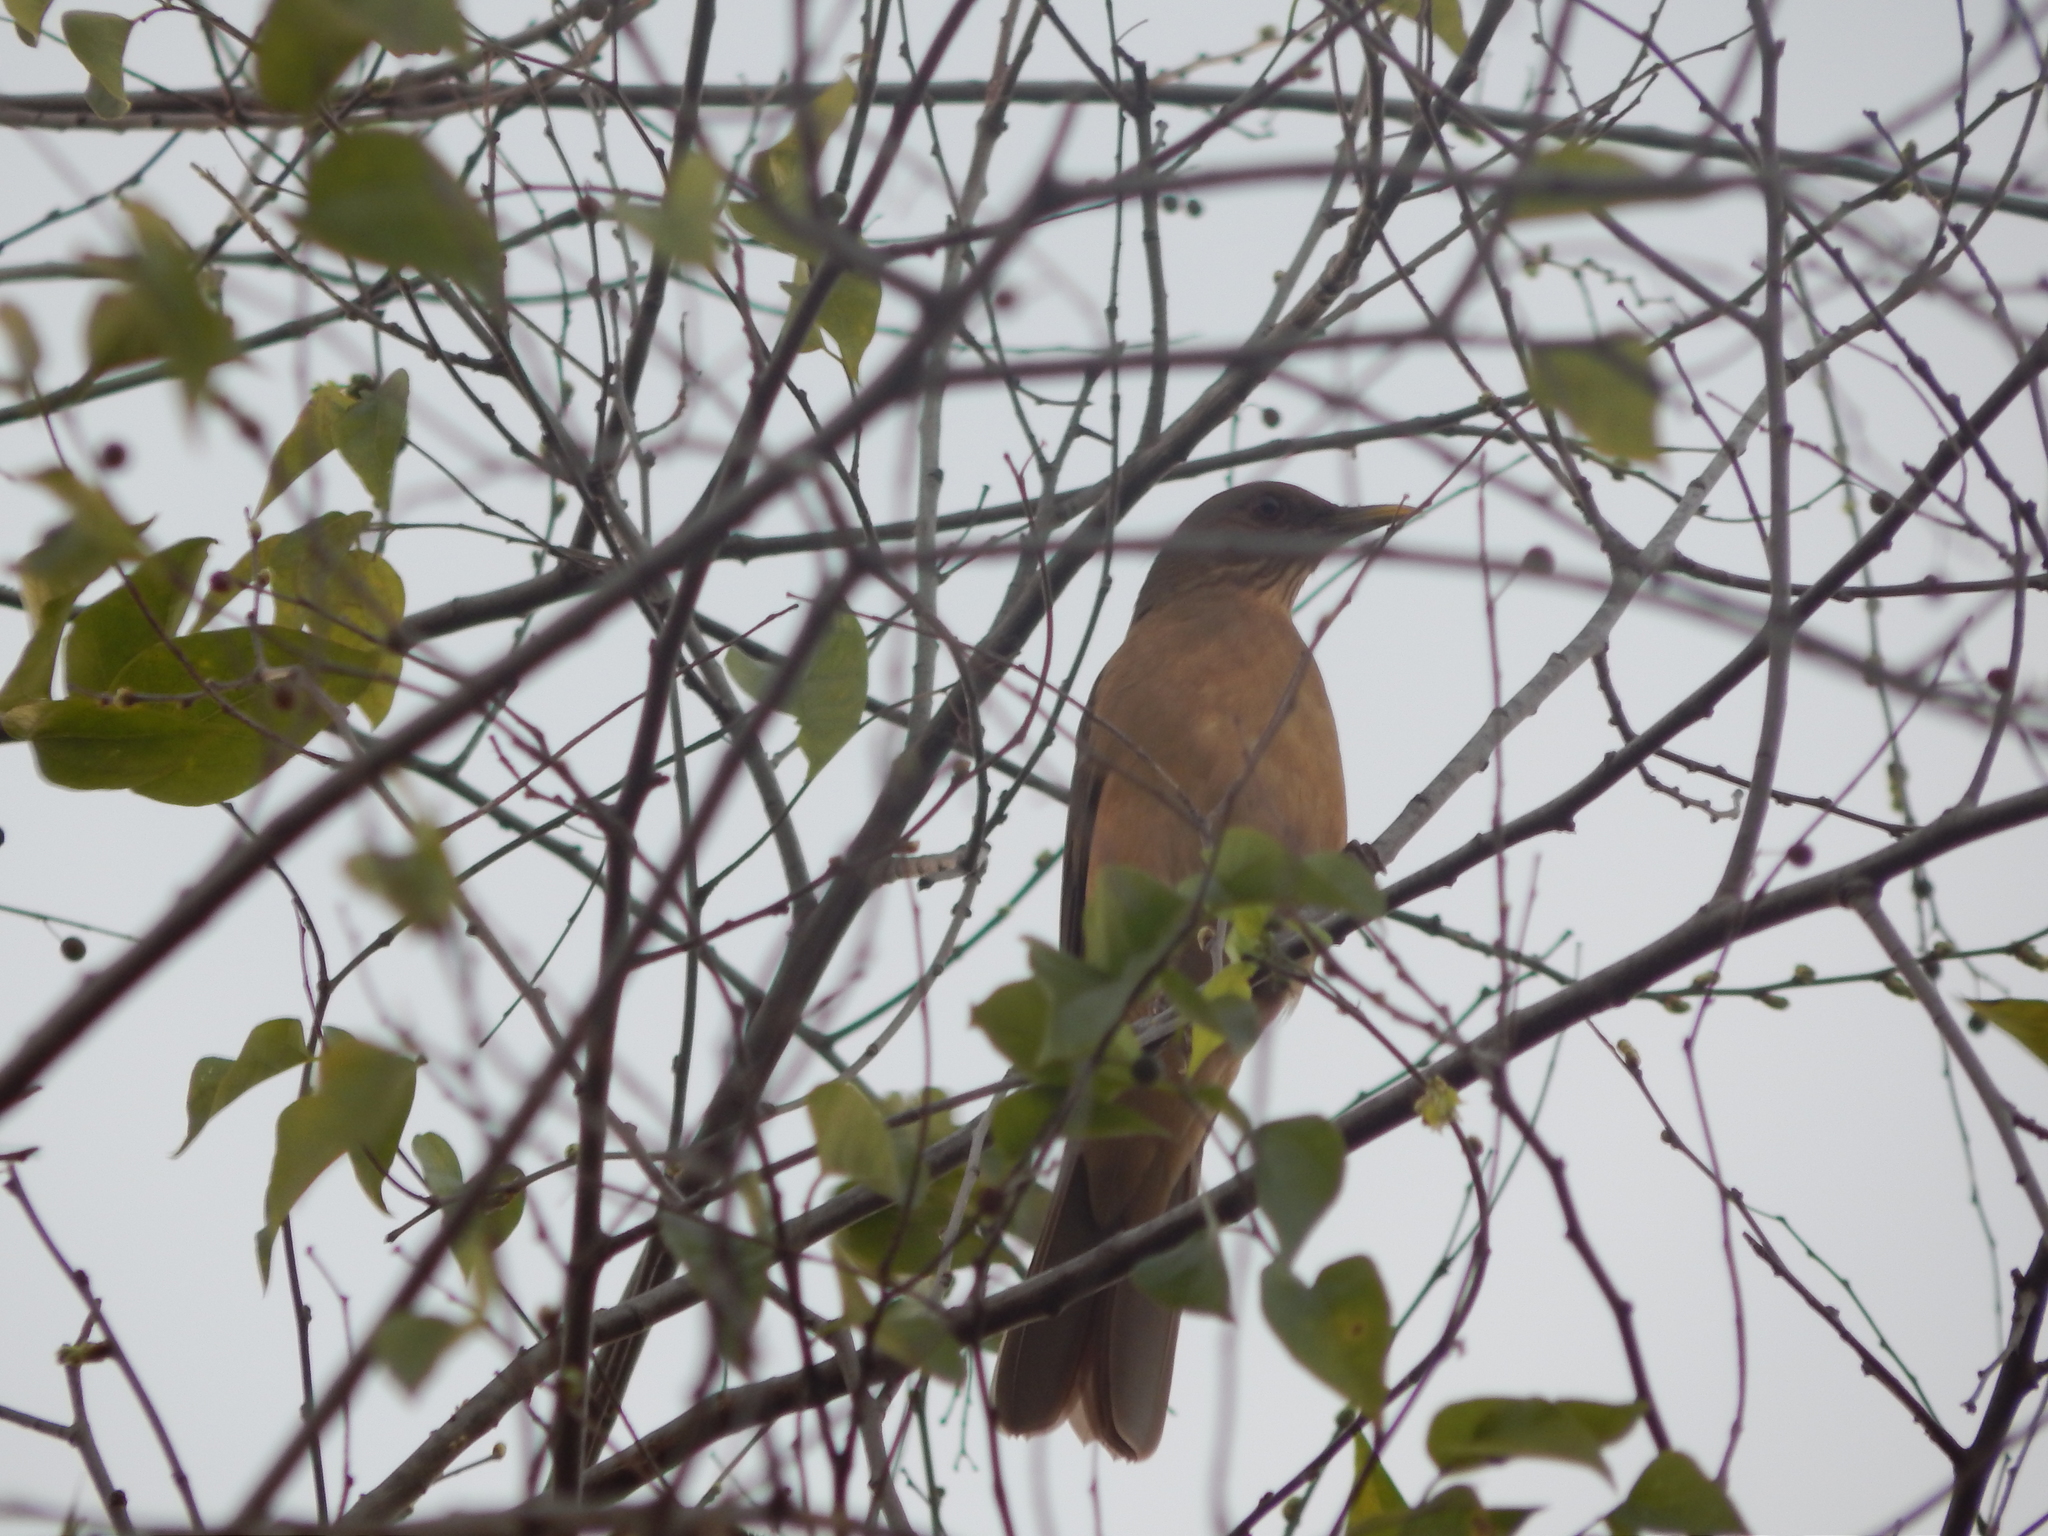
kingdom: Animalia
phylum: Chordata
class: Aves
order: Passeriformes
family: Turdidae
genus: Turdus
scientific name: Turdus grayi
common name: Clay-colored thrush
